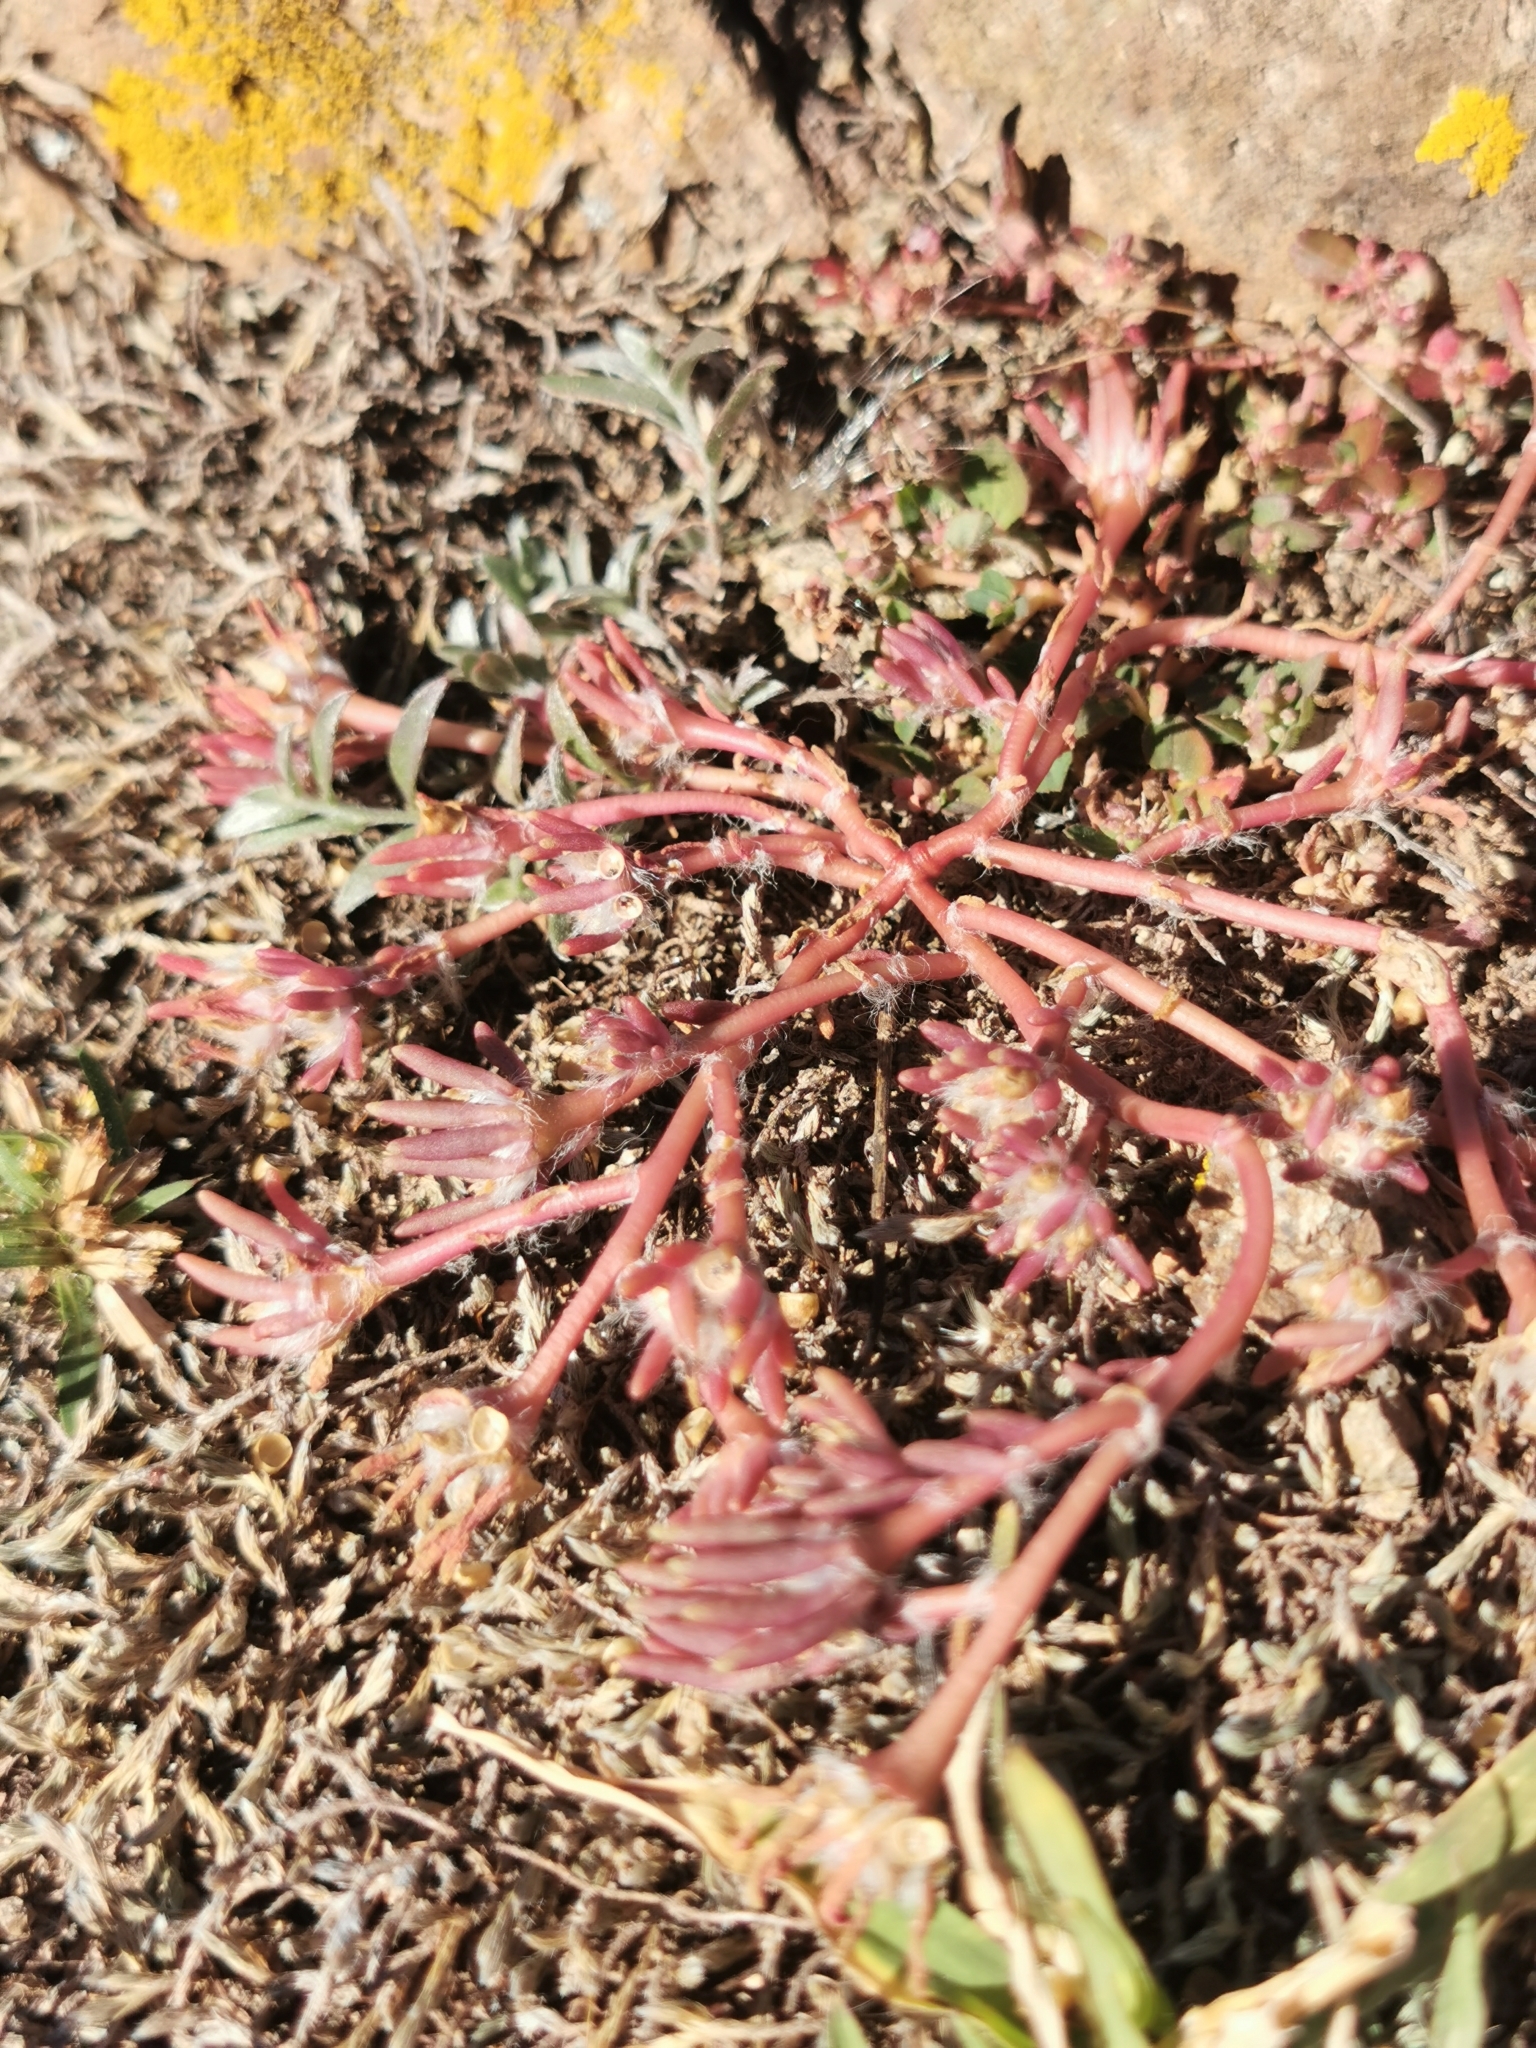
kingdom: Plantae
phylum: Tracheophyta
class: Magnoliopsida
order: Caryophyllales
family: Portulacaceae
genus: Portulaca
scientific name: Portulaca pilosa
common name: Kiss me quick
